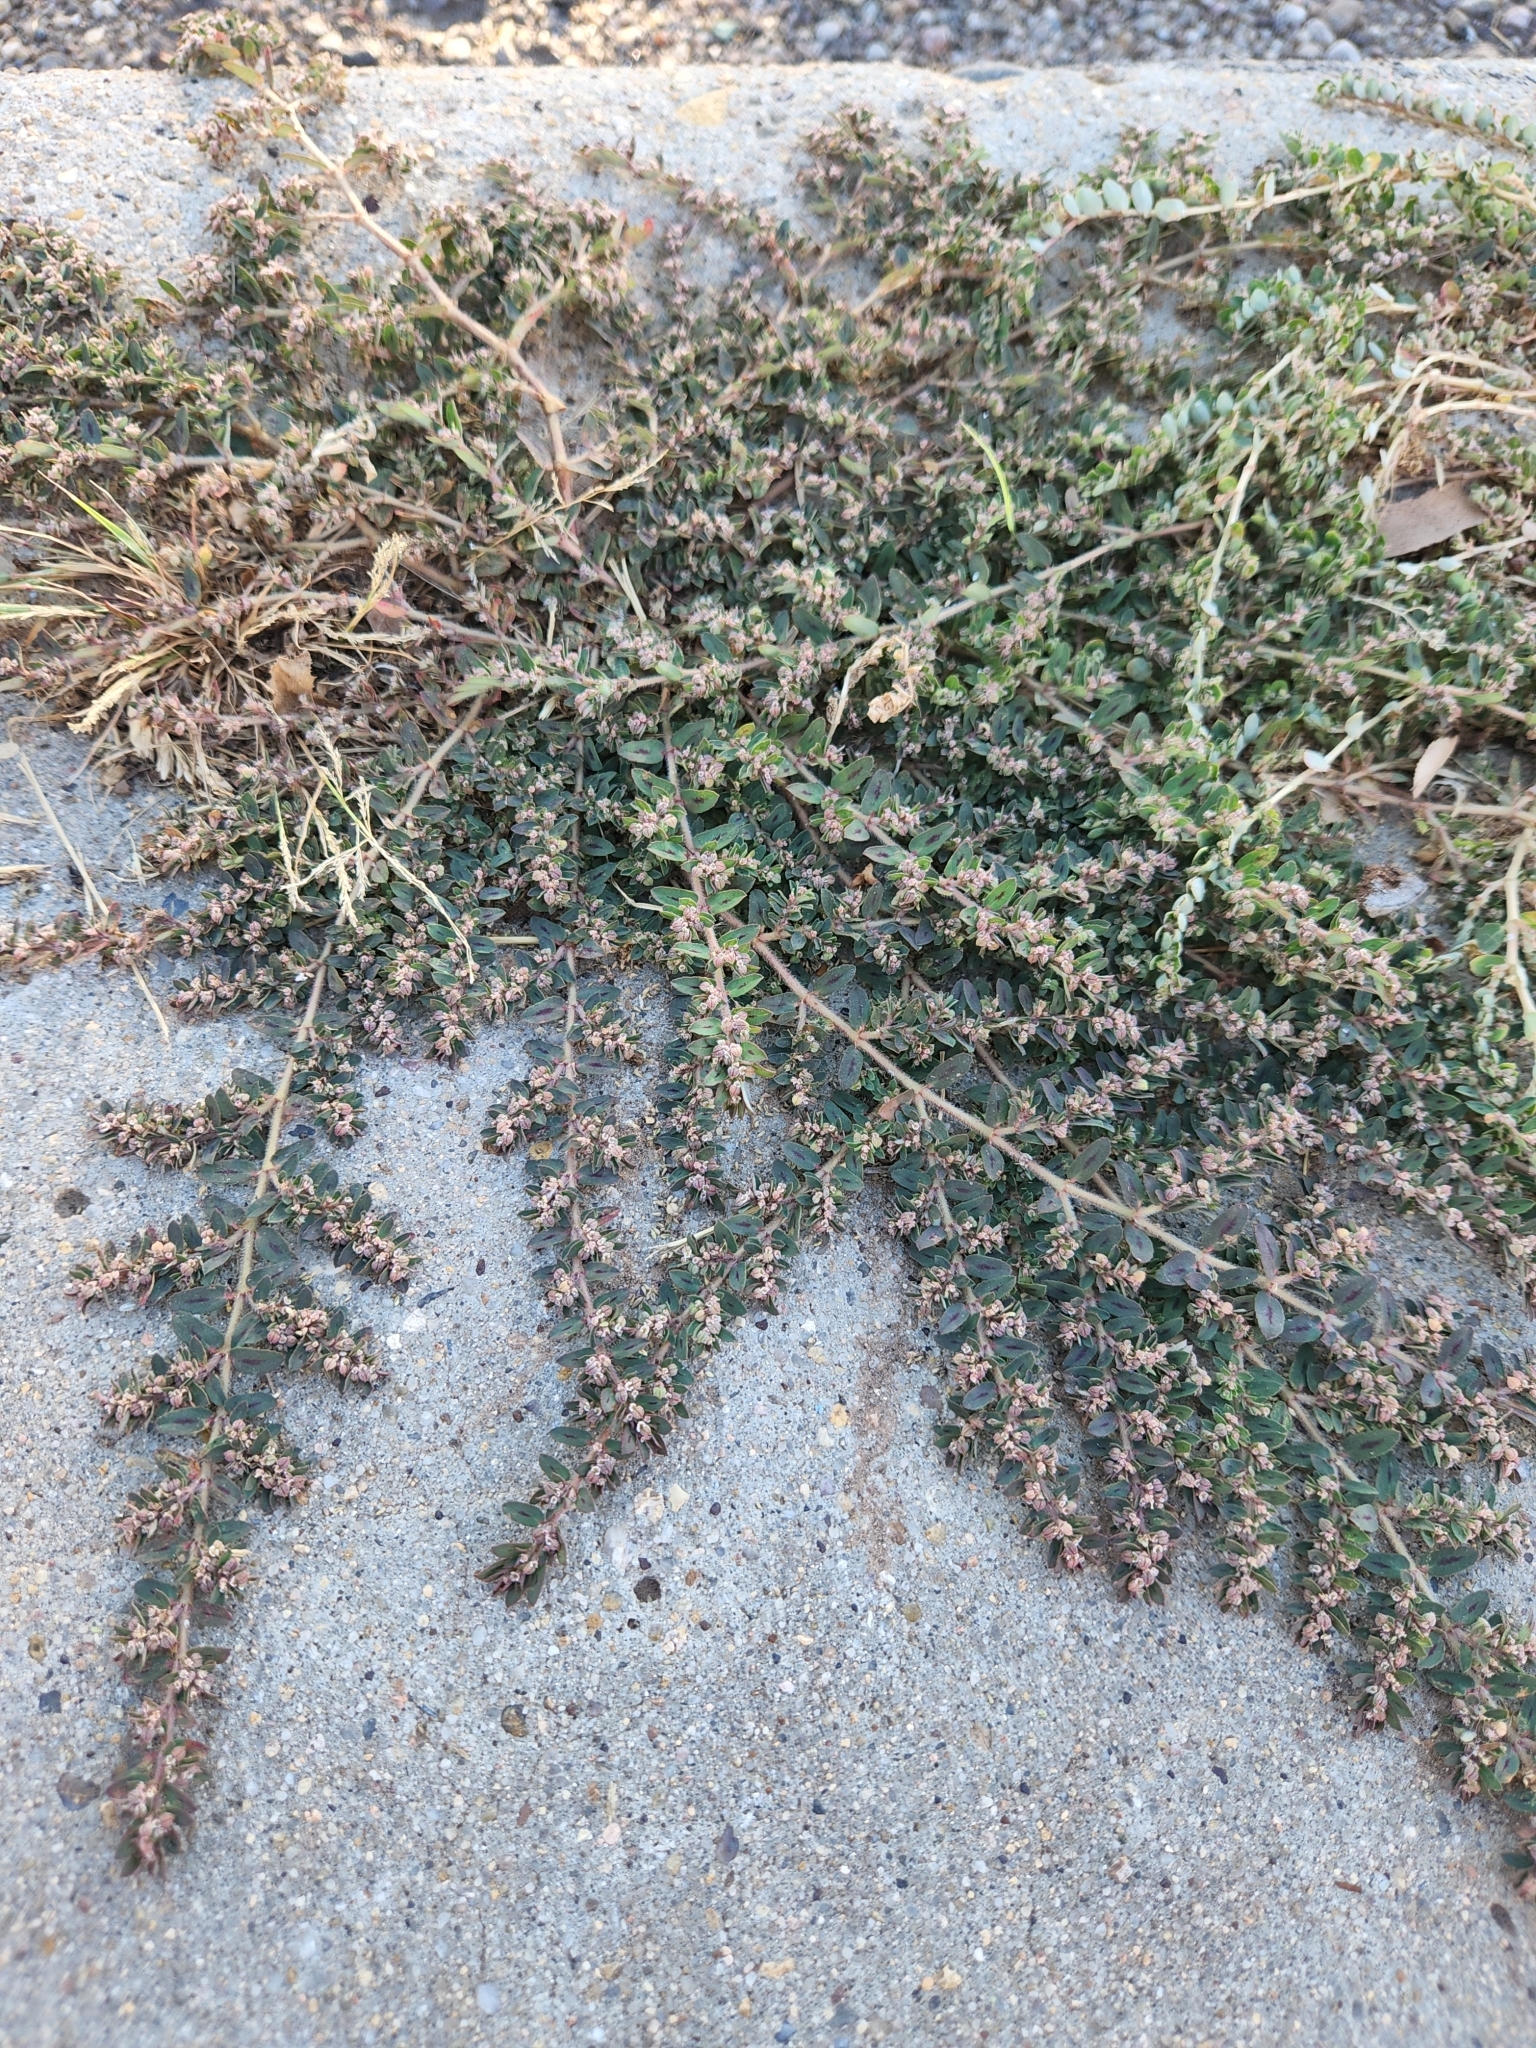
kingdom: Plantae
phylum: Tracheophyta
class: Magnoliopsida
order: Malpighiales
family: Euphorbiaceae
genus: Euphorbia
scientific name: Euphorbia maculata
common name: Spotted spurge
